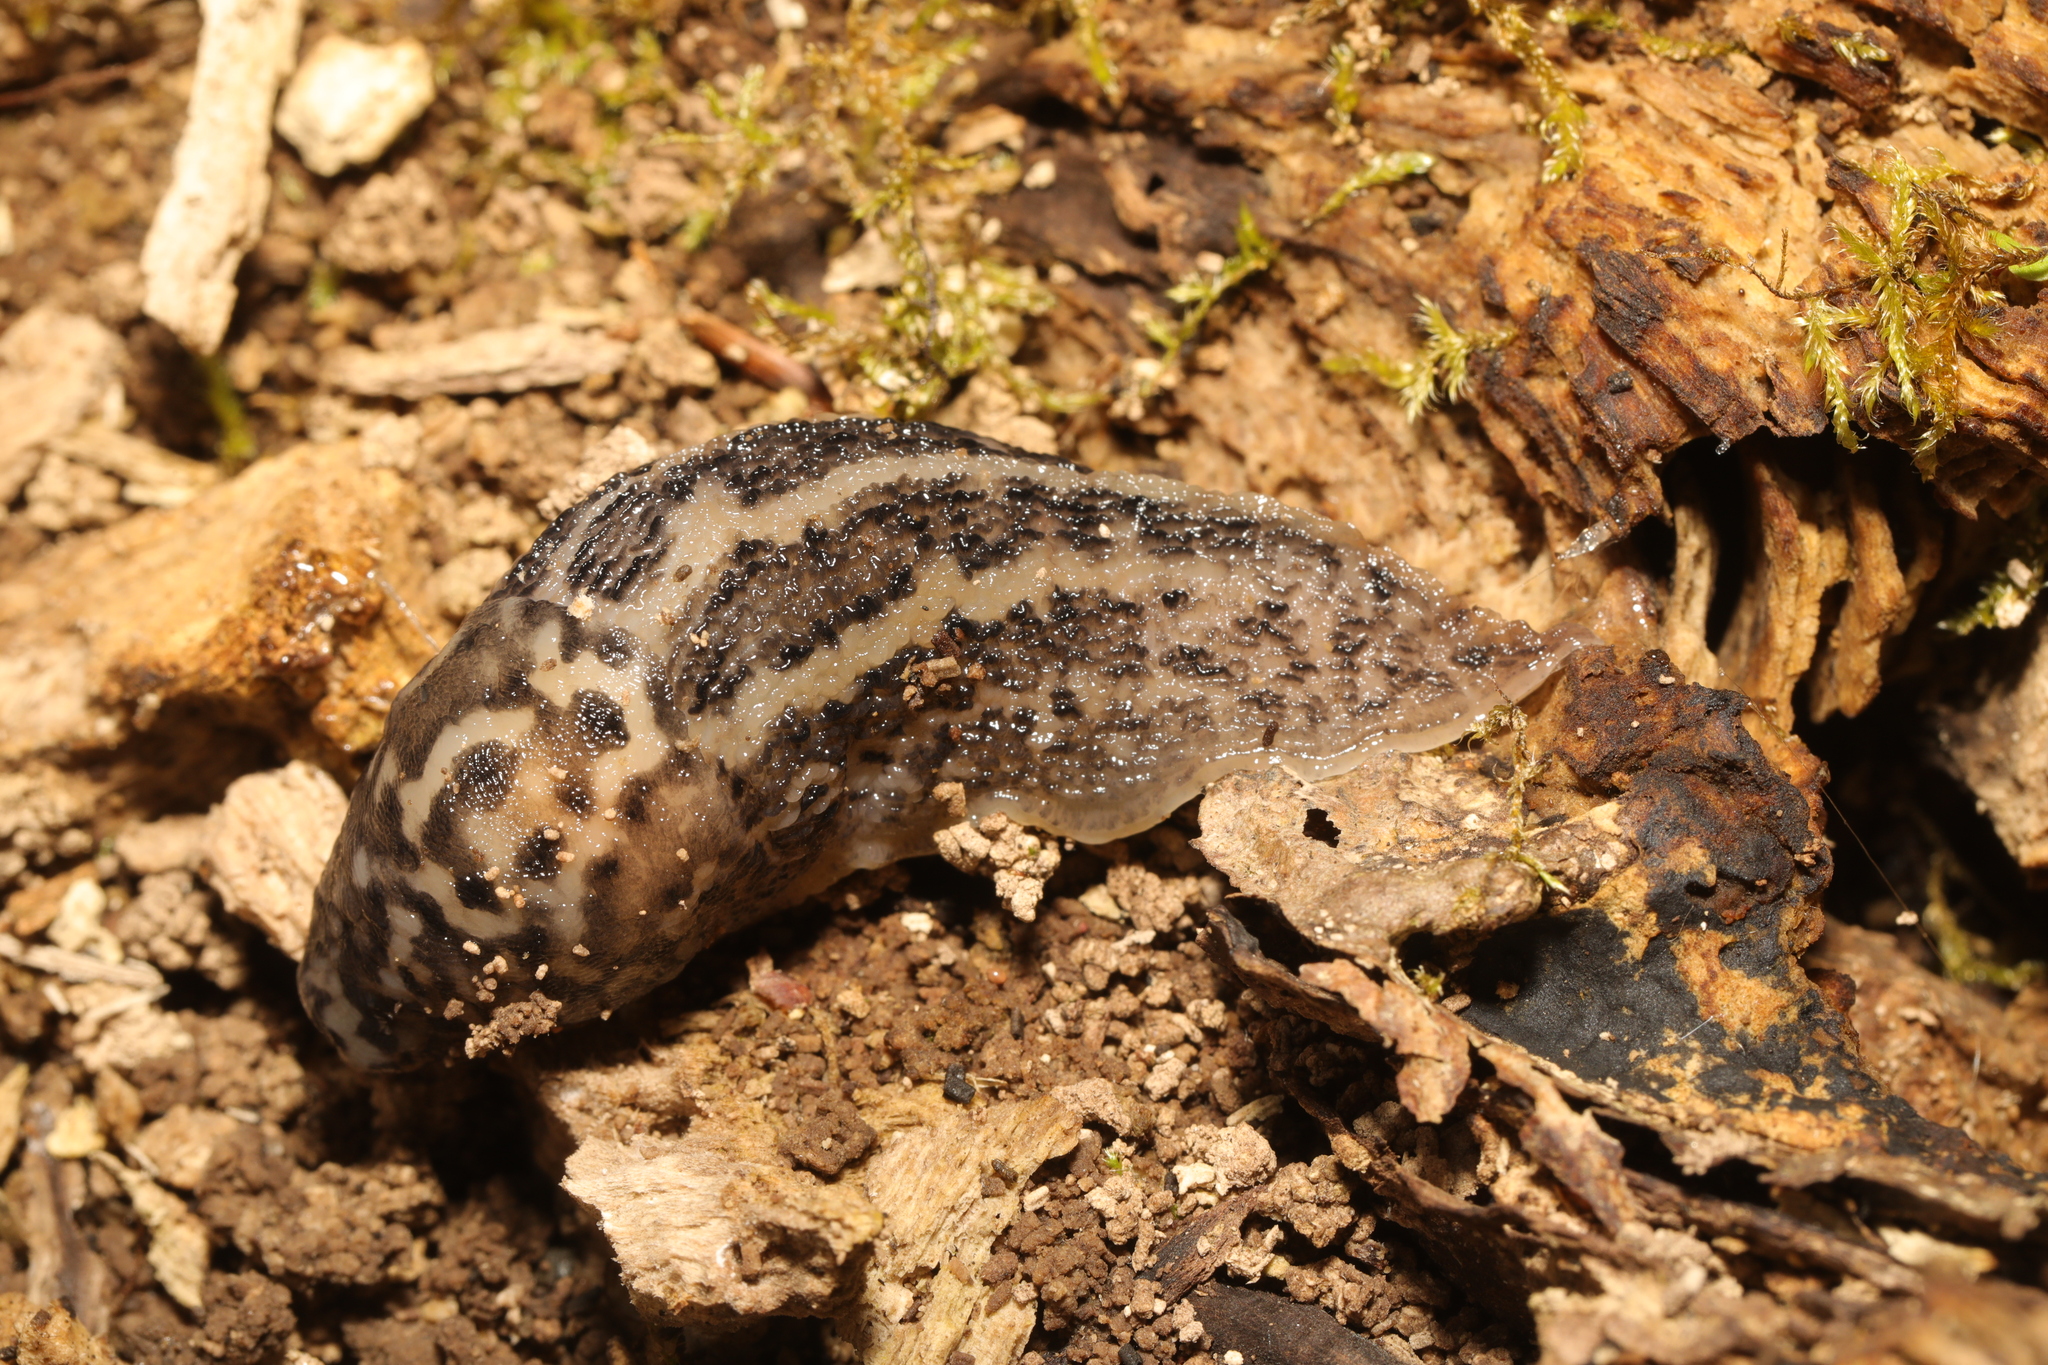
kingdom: Animalia
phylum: Mollusca
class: Gastropoda
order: Stylommatophora
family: Limacidae
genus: Limax
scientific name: Limax maximus
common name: Great grey slug
